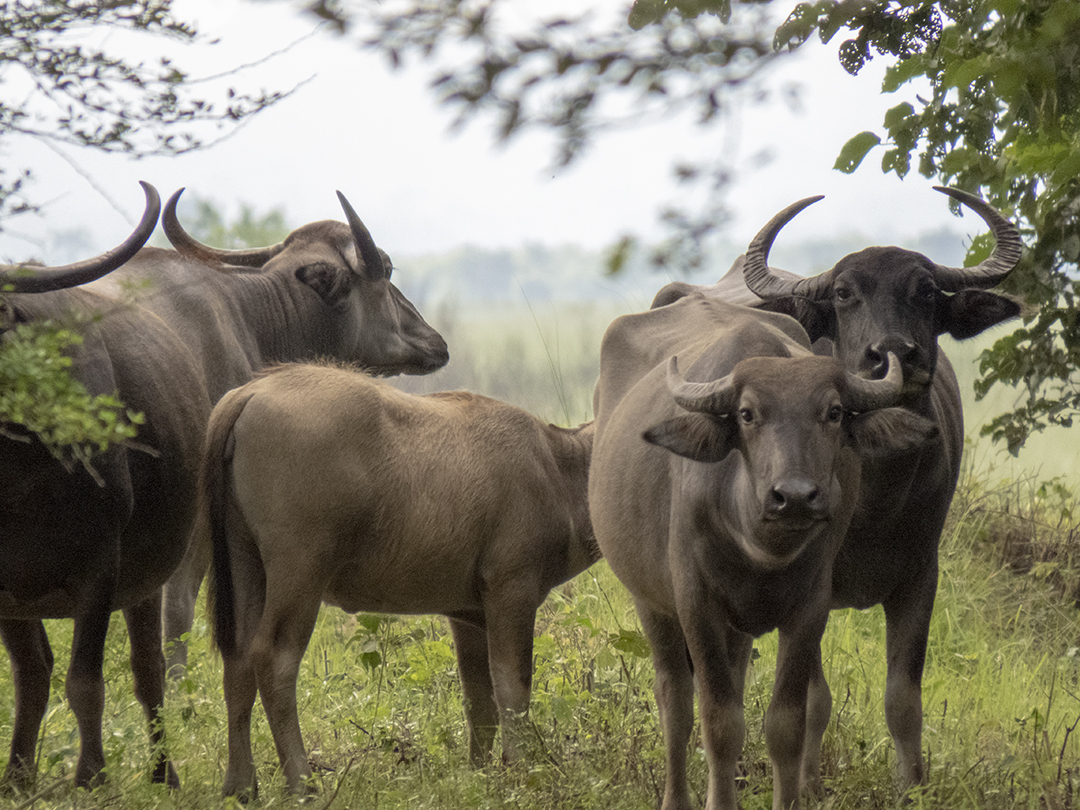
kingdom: Animalia
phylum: Chordata
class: Mammalia
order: Artiodactyla
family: Bovidae
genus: Bubalus
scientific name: Bubalus bubalis
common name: Water buffalo
